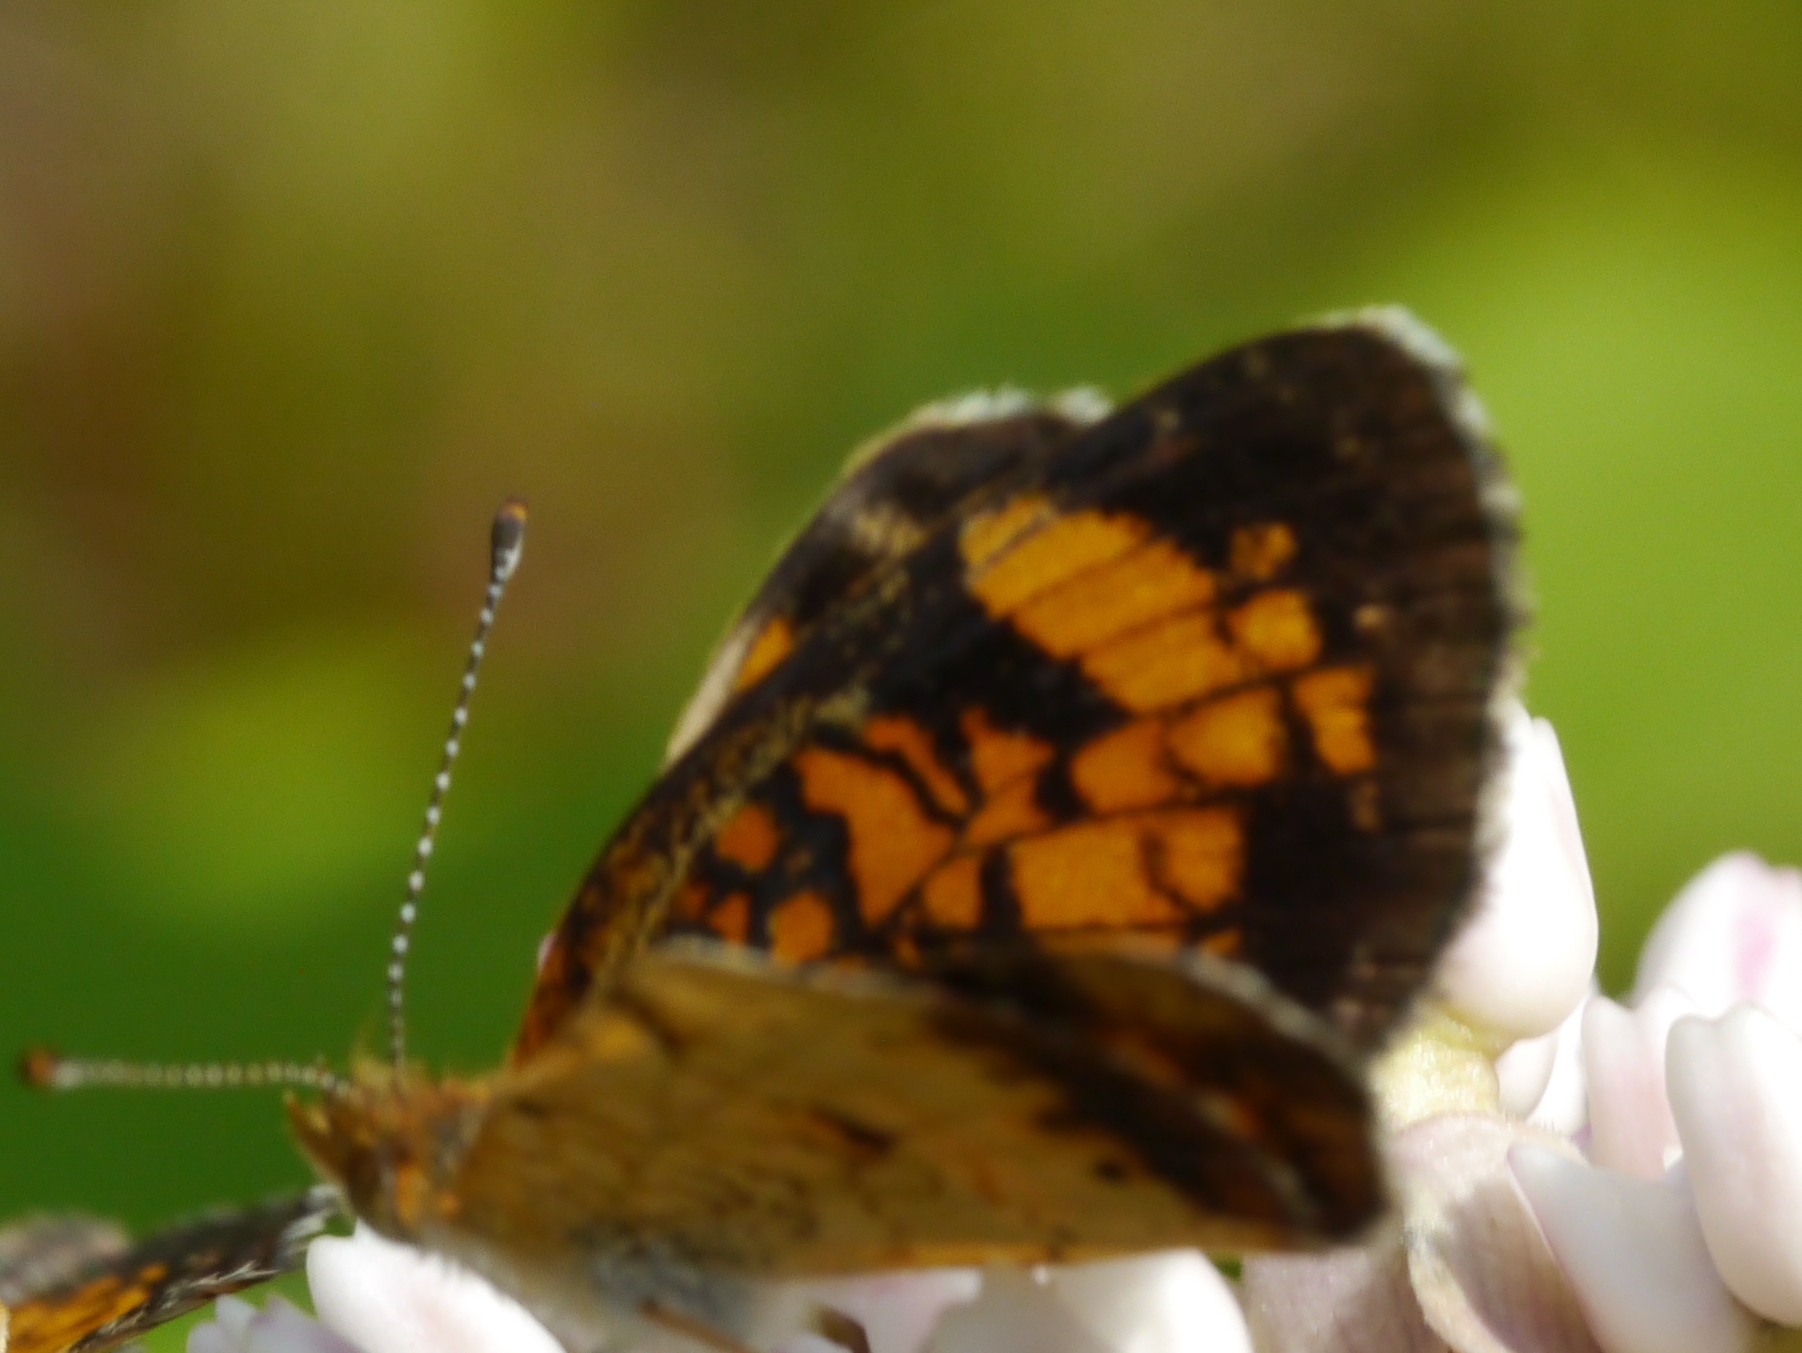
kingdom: Animalia
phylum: Arthropoda
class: Insecta
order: Lepidoptera
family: Nymphalidae
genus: Phyciodes
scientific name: Phyciodes tharos
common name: Pearl crescent
